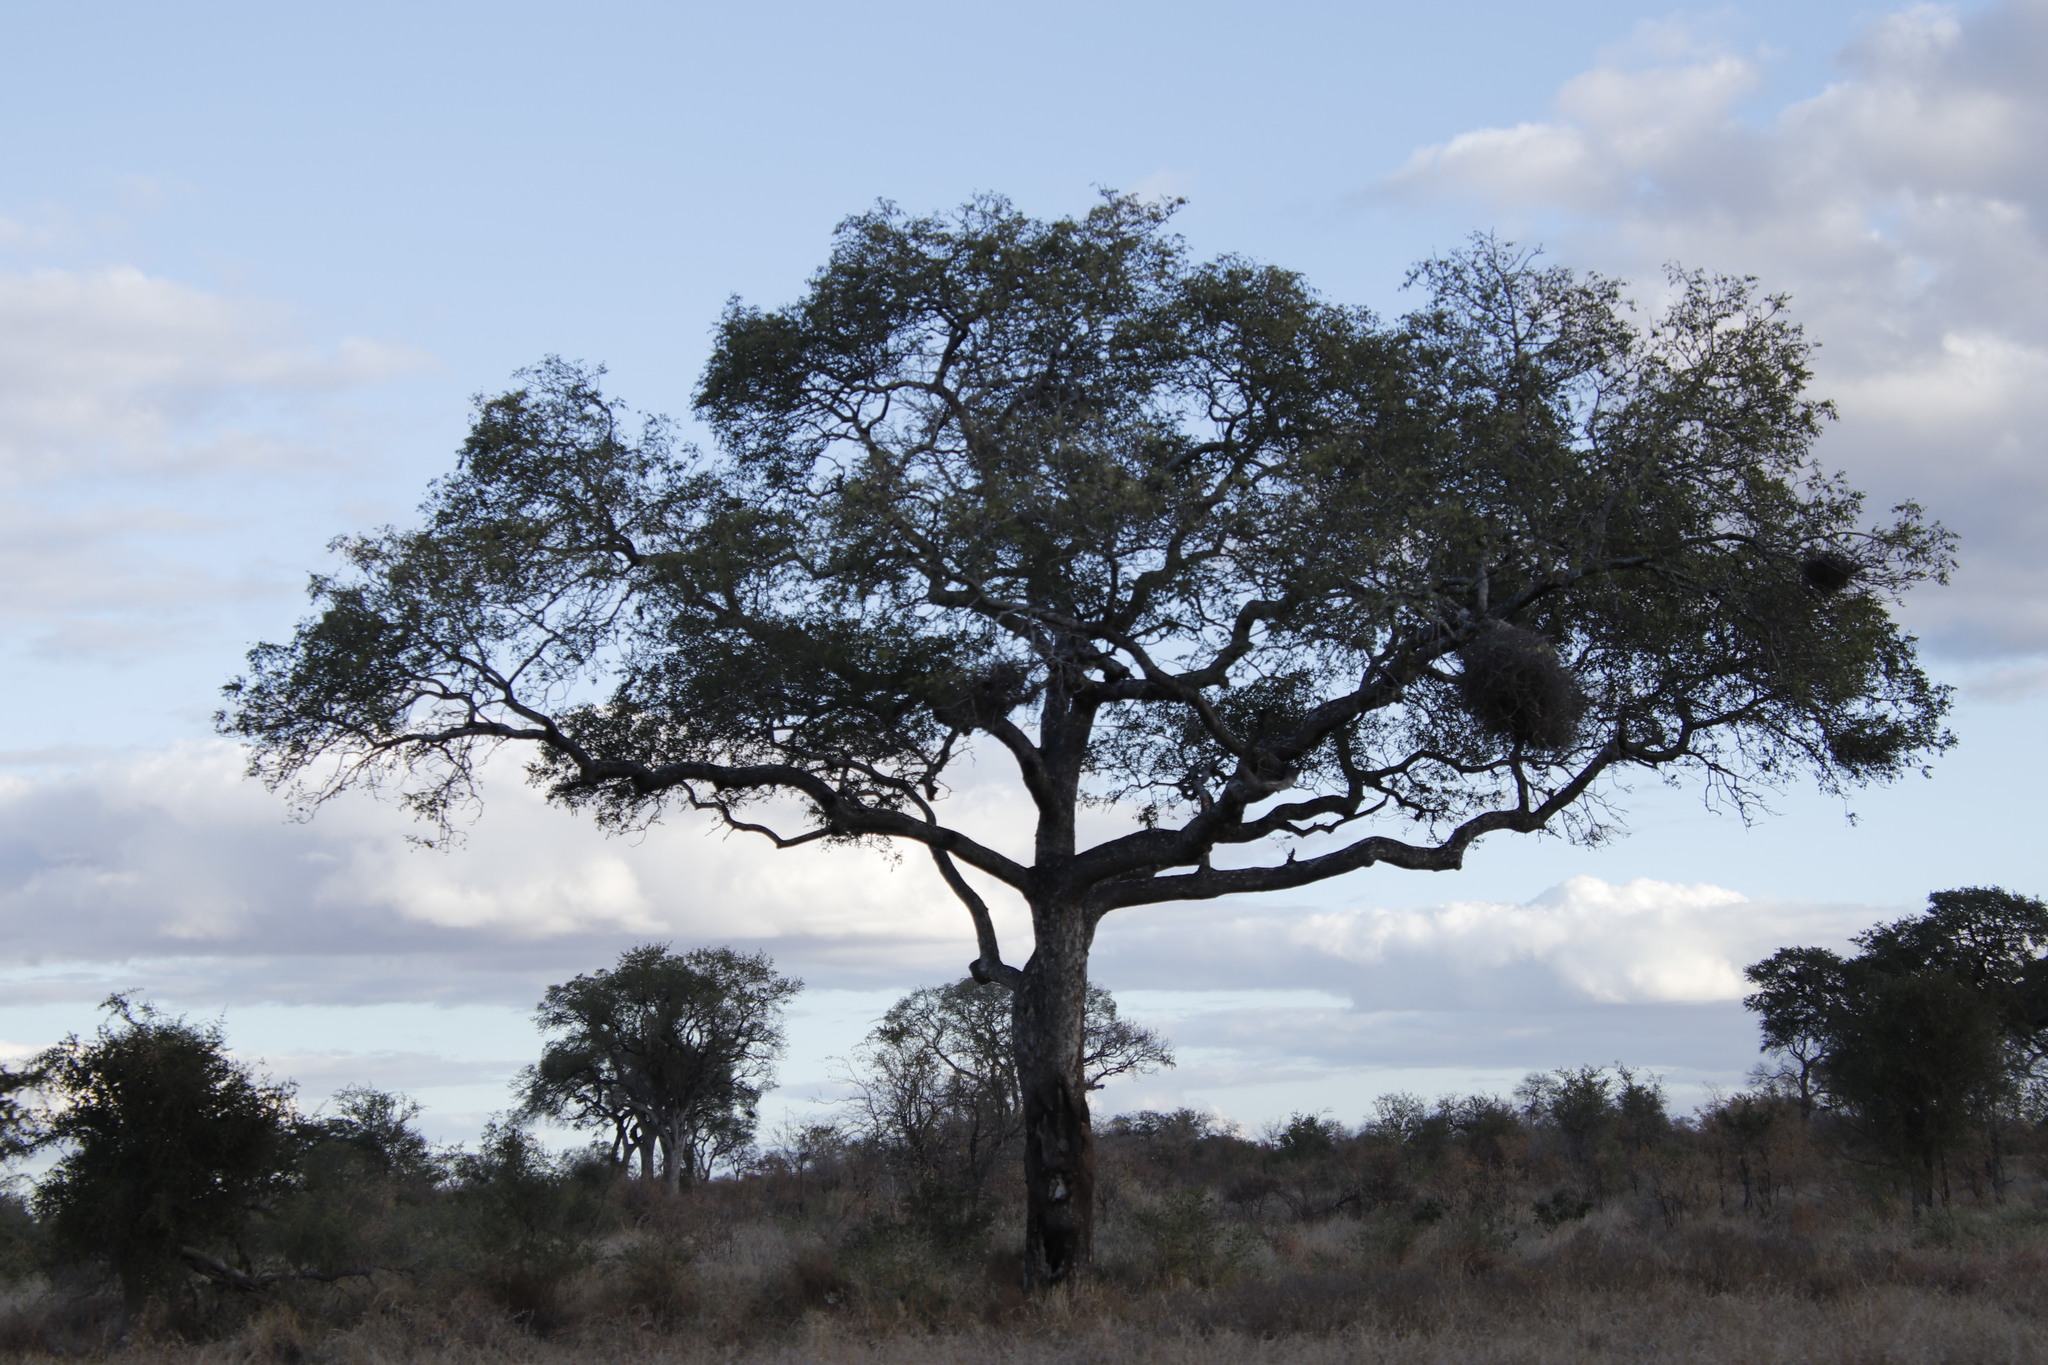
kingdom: Plantae
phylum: Tracheophyta
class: Magnoliopsida
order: Sapindales
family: Anacardiaceae
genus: Sclerocarya
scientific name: Sclerocarya birrea
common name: Marula
